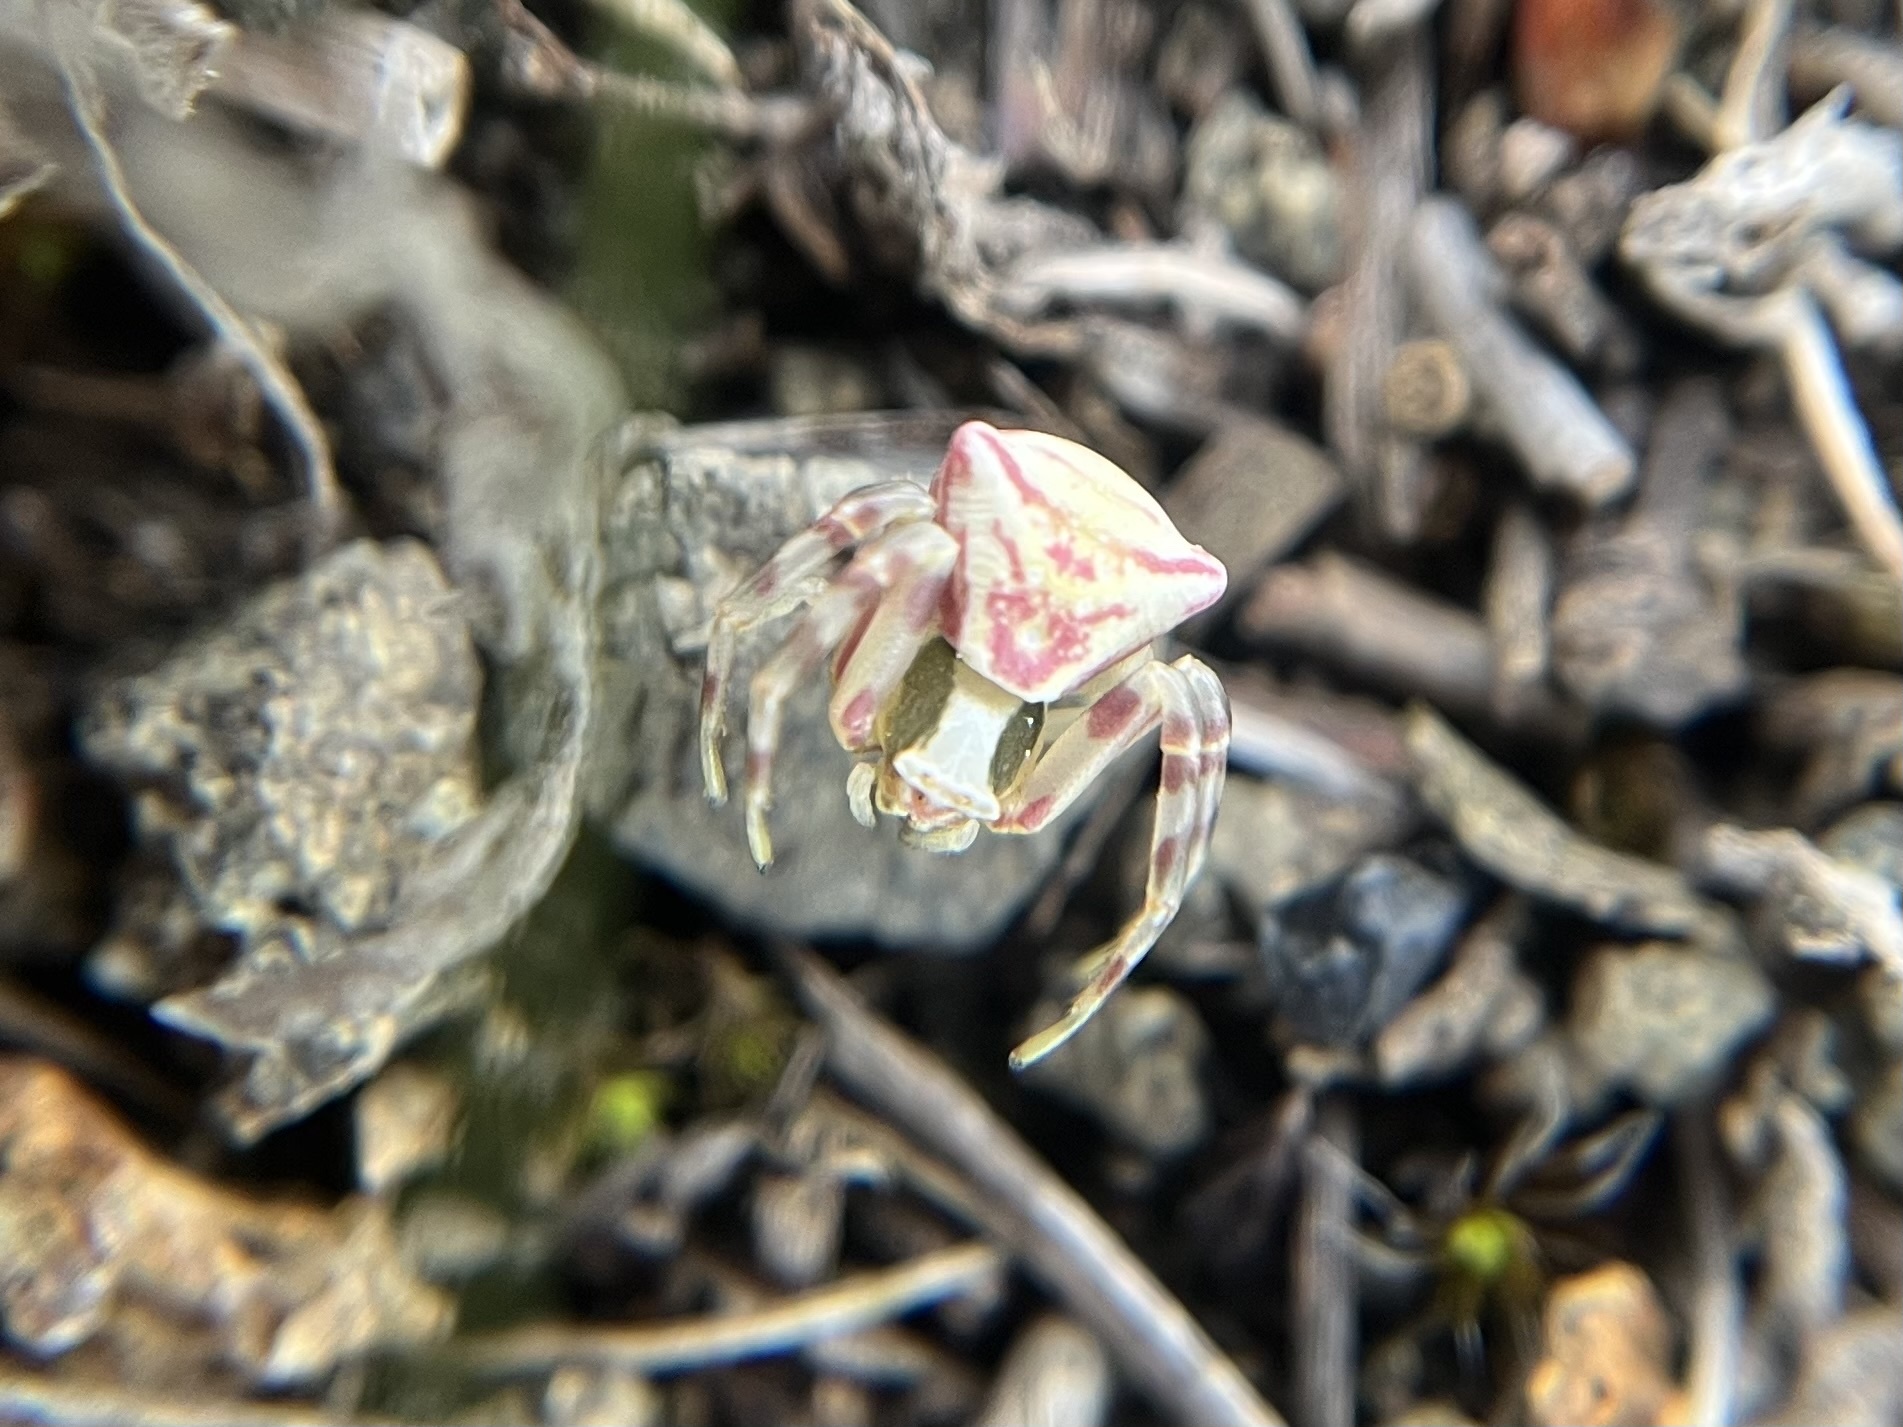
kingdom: Animalia
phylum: Arthropoda
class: Arachnida
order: Araneae
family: Thomisidae
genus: Thomisus
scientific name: Thomisus onustus
